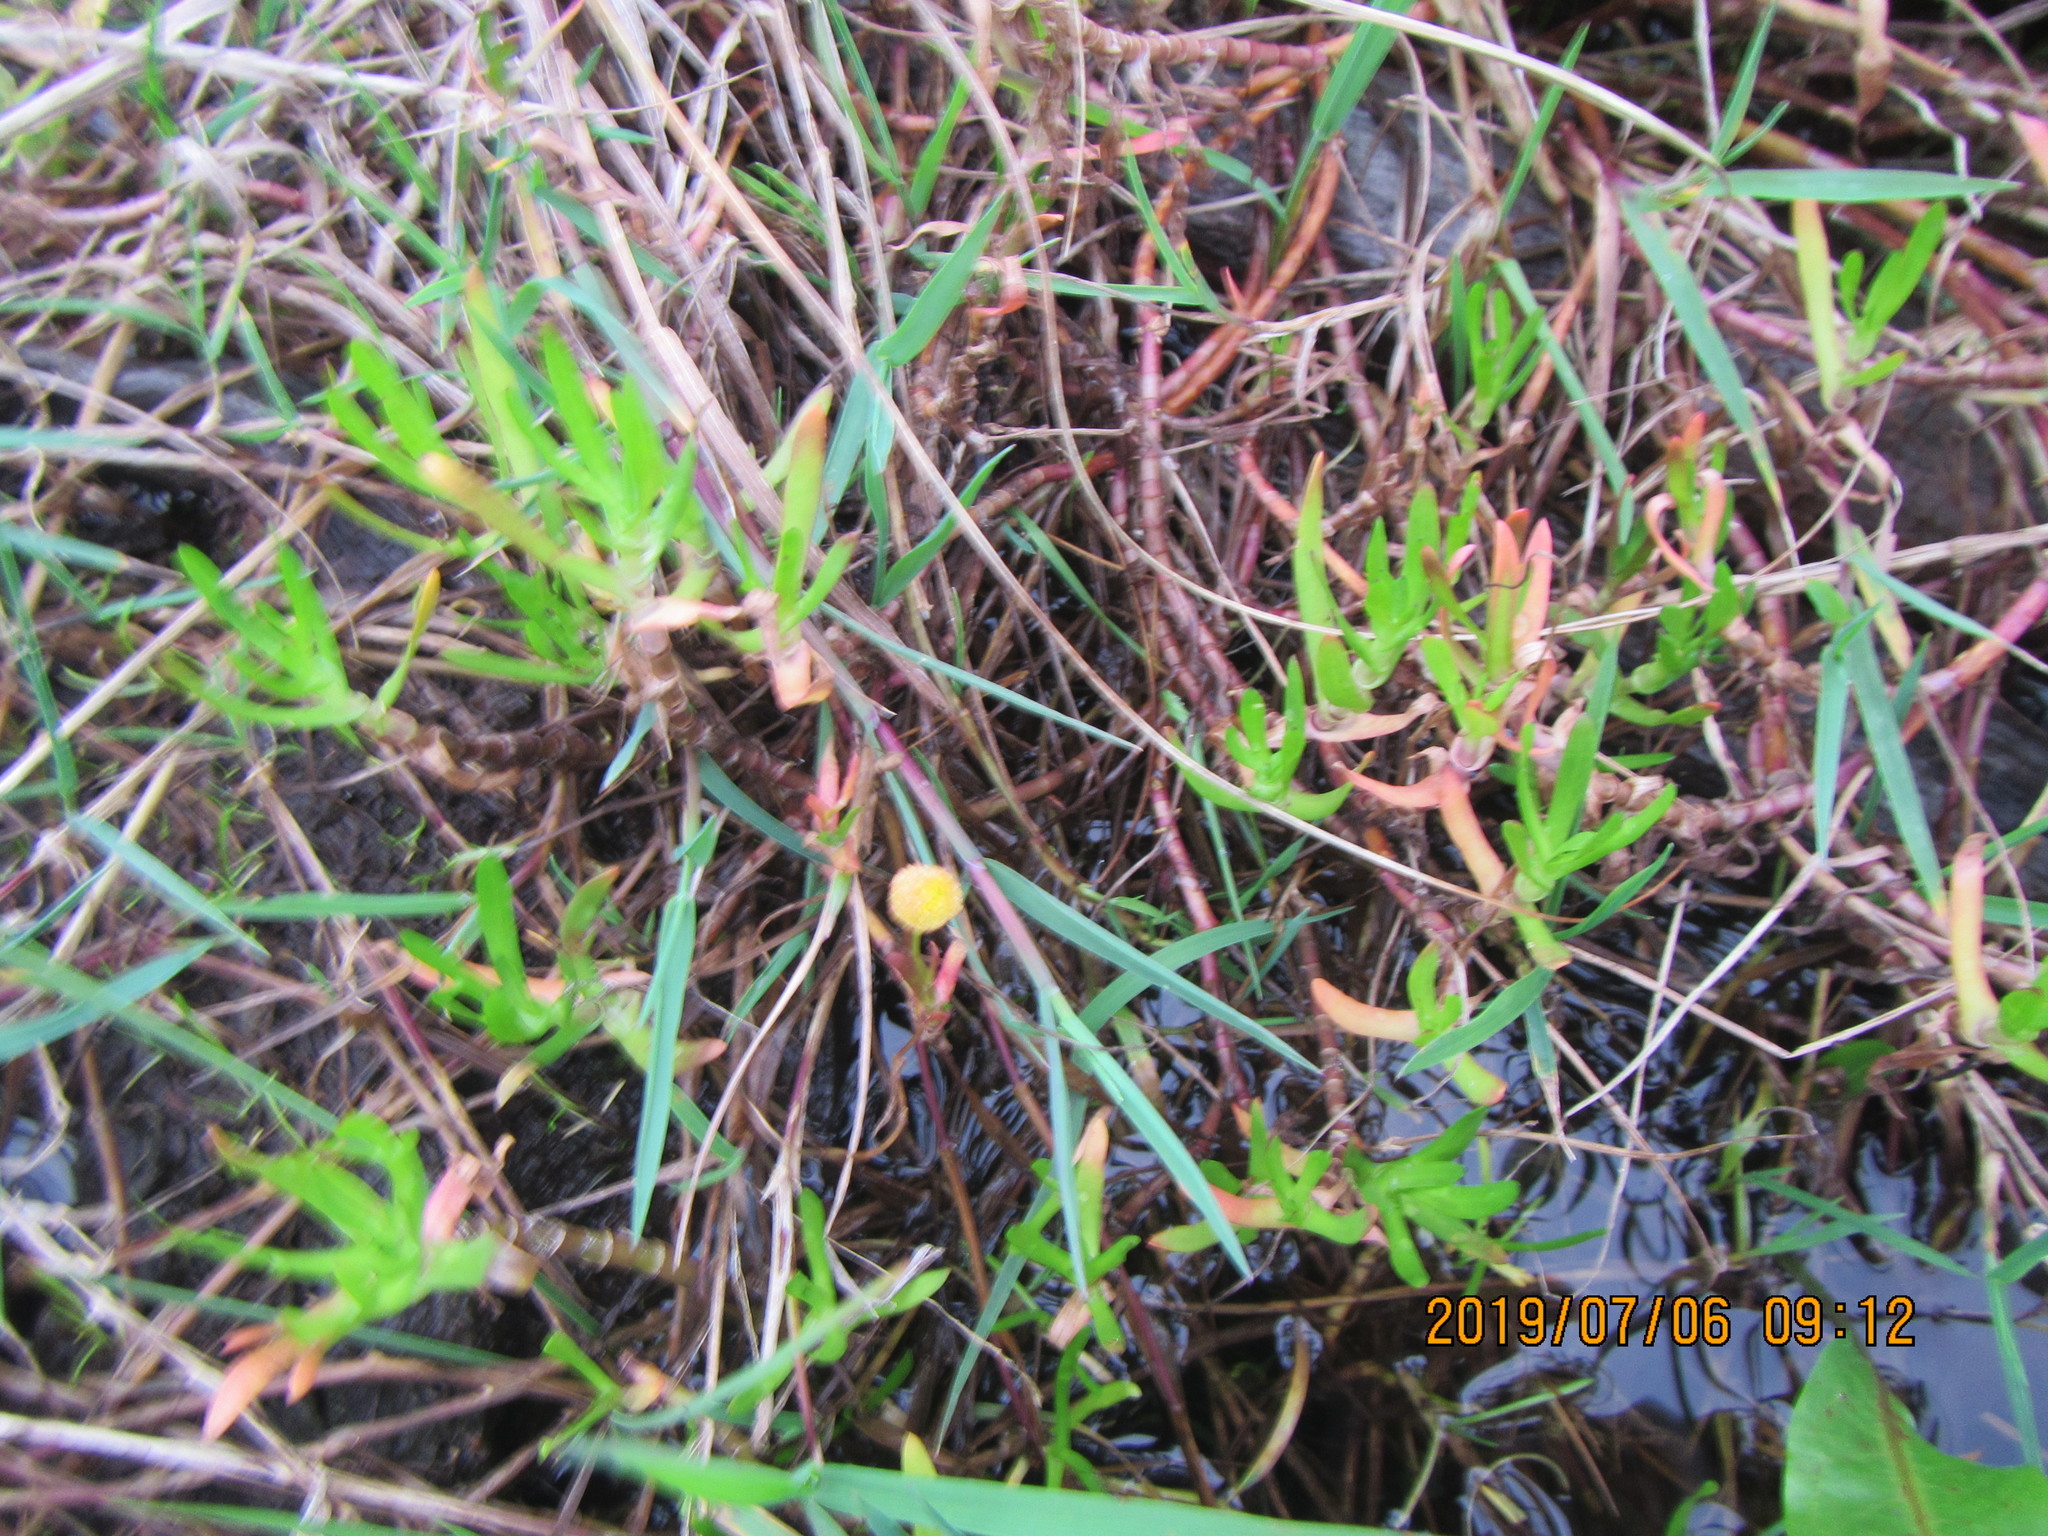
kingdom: Plantae
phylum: Tracheophyta
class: Magnoliopsida
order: Asterales
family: Asteraceae
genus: Cotula
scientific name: Cotula coronopifolia
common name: Buttonweed
